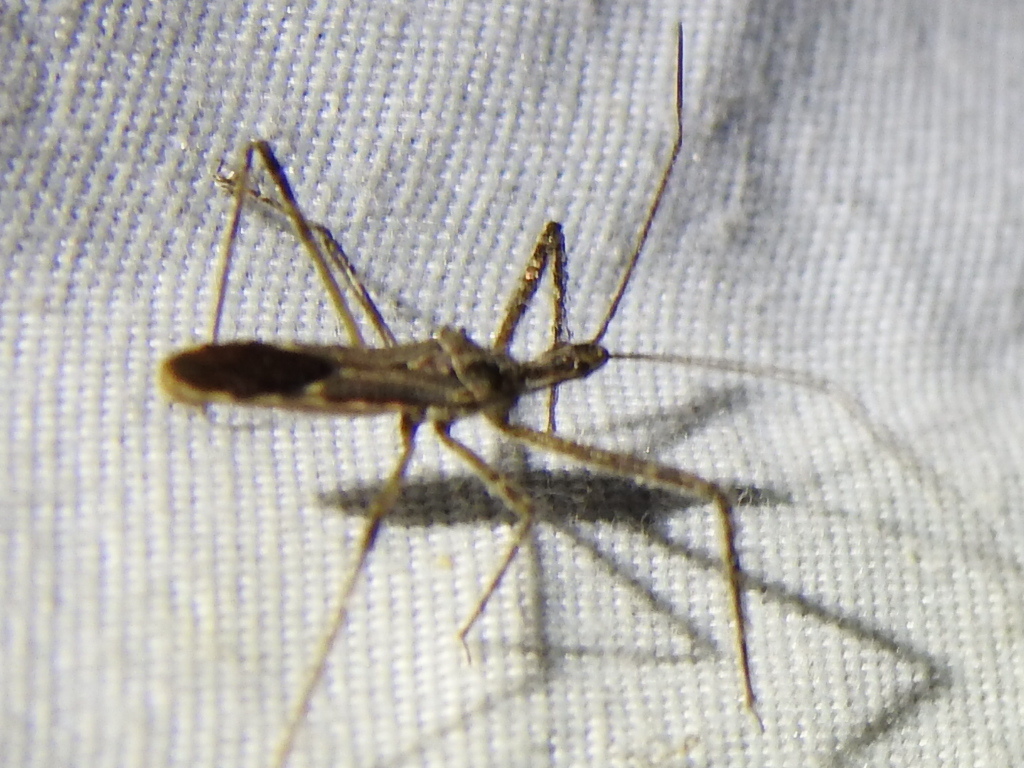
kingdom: Animalia
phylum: Arthropoda
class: Insecta
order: Hemiptera
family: Reduviidae
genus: Zelus
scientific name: Zelus tetracanthus
